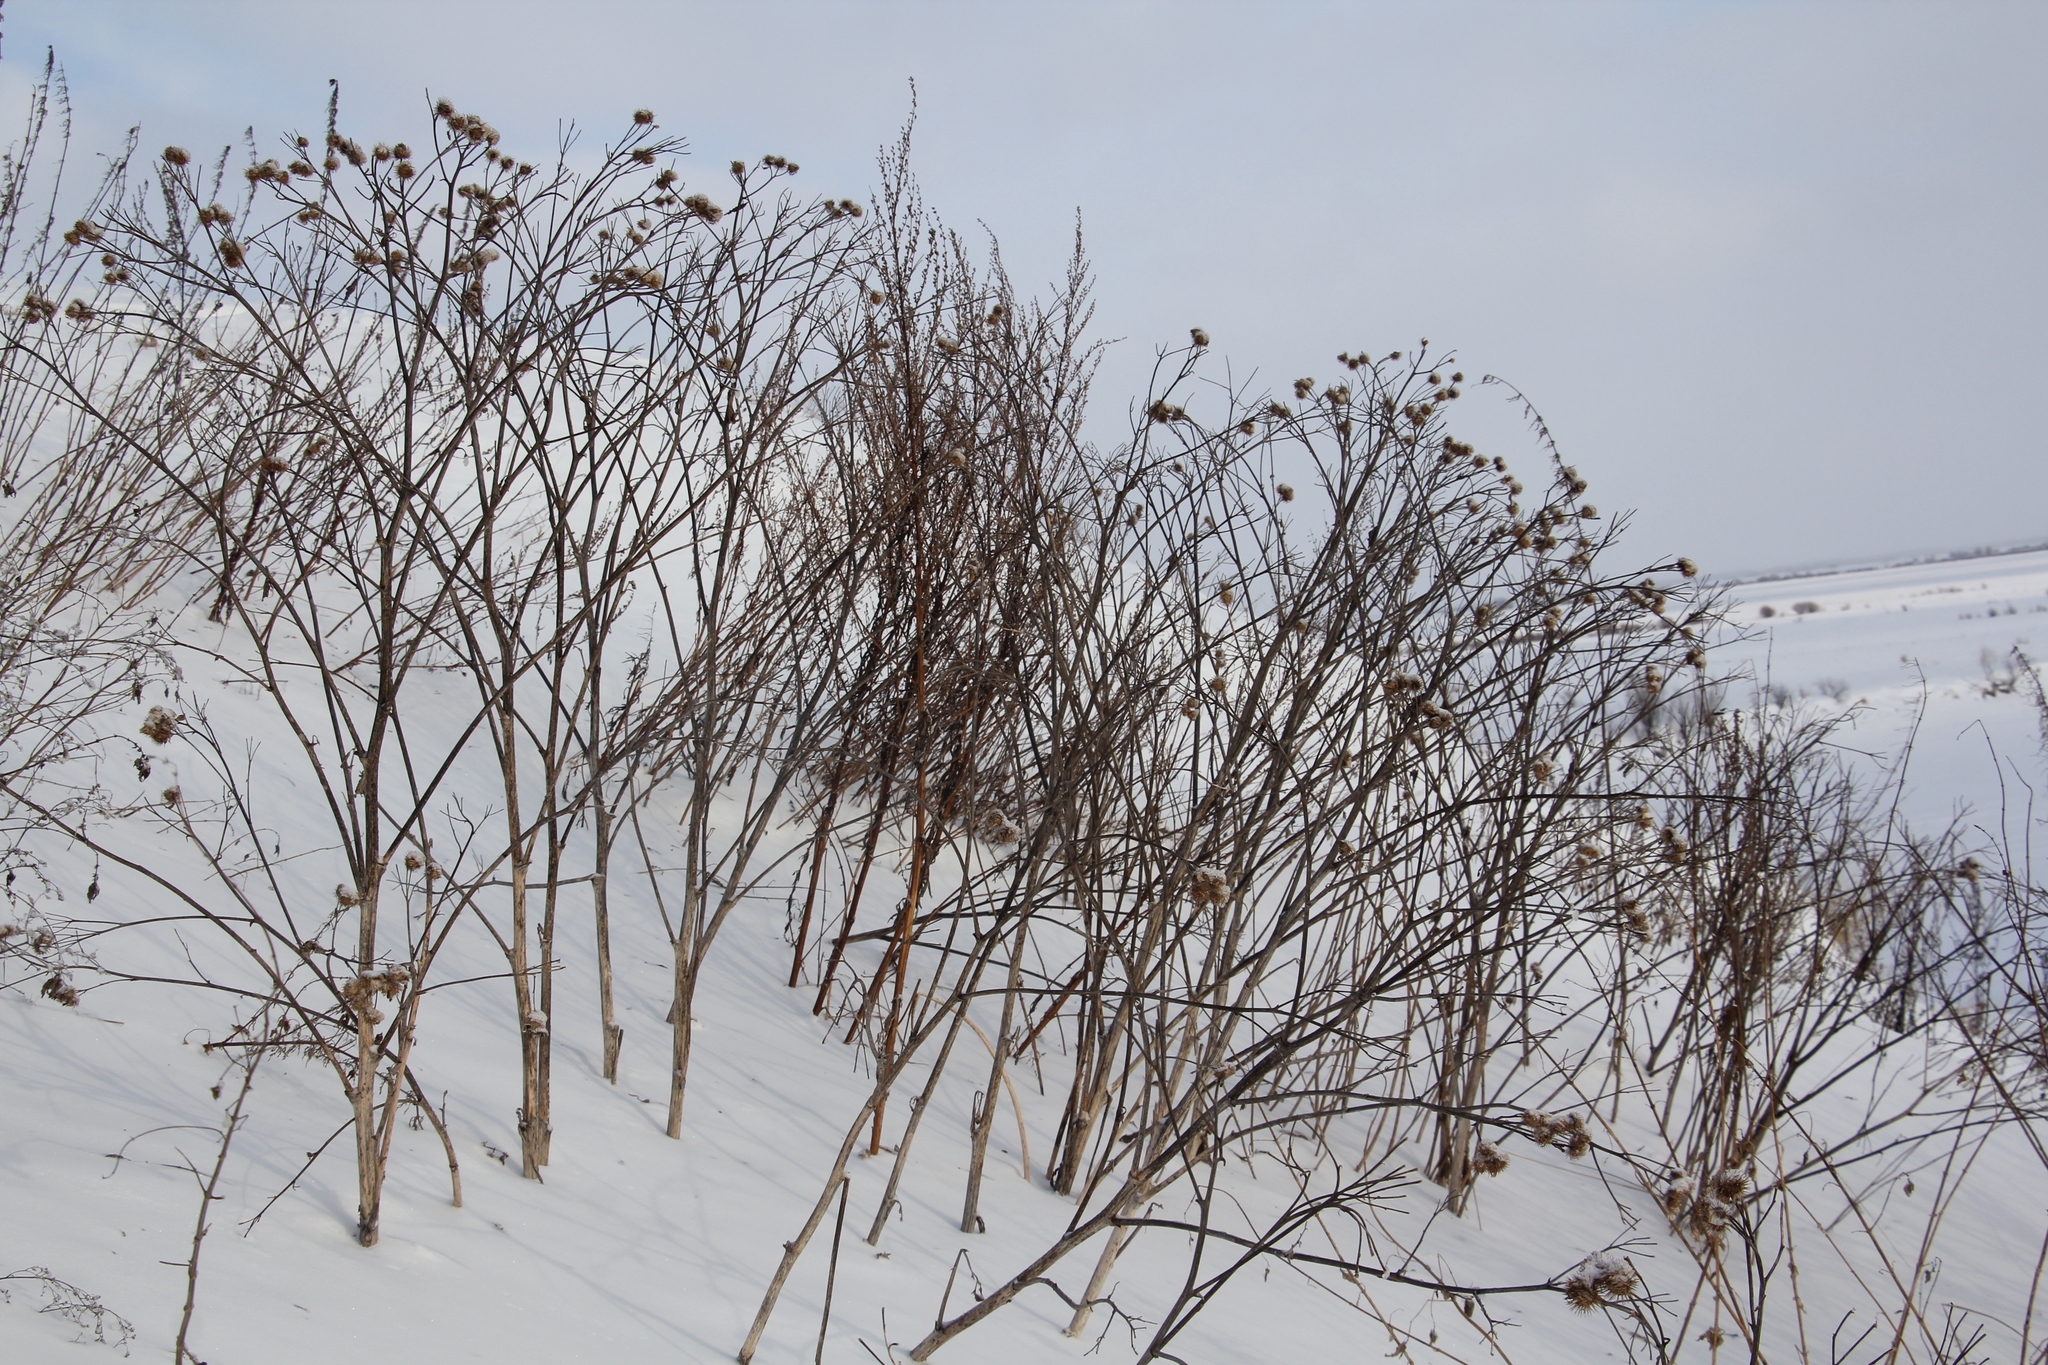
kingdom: Plantae
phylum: Tracheophyta
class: Magnoliopsida
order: Asterales
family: Asteraceae
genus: Arctium
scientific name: Arctium tomentosum
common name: Woolly burdock
